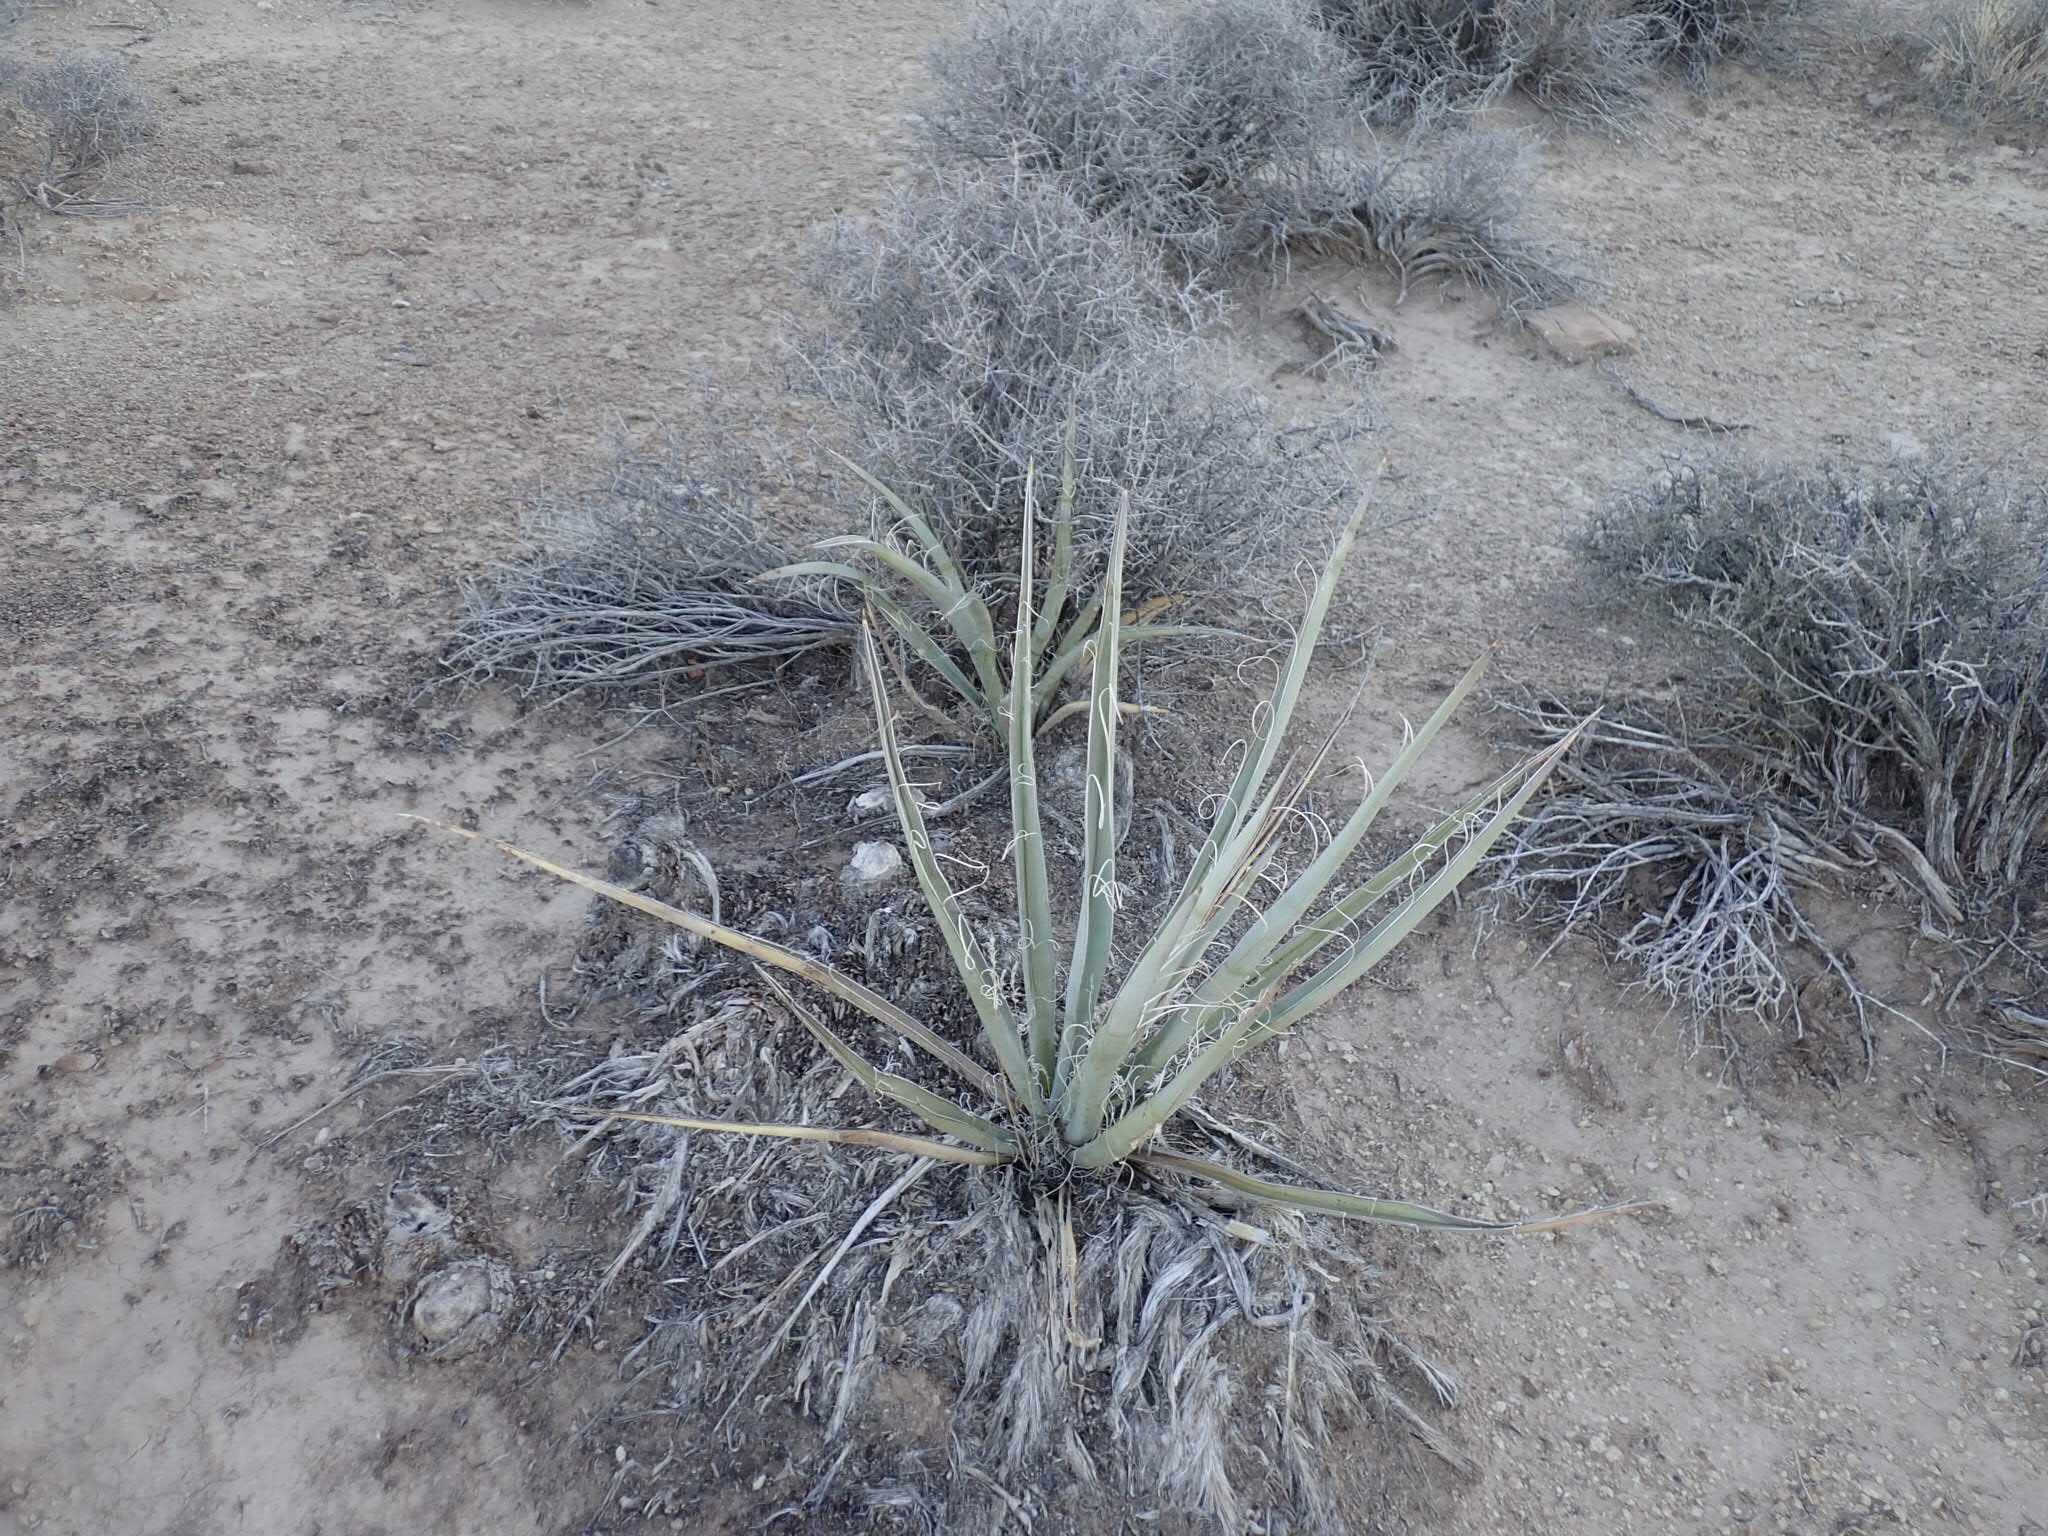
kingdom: Plantae
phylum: Tracheophyta
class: Liliopsida
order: Asparagales
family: Asparagaceae
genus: Yucca
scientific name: Yucca baccata
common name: Banana yucca
